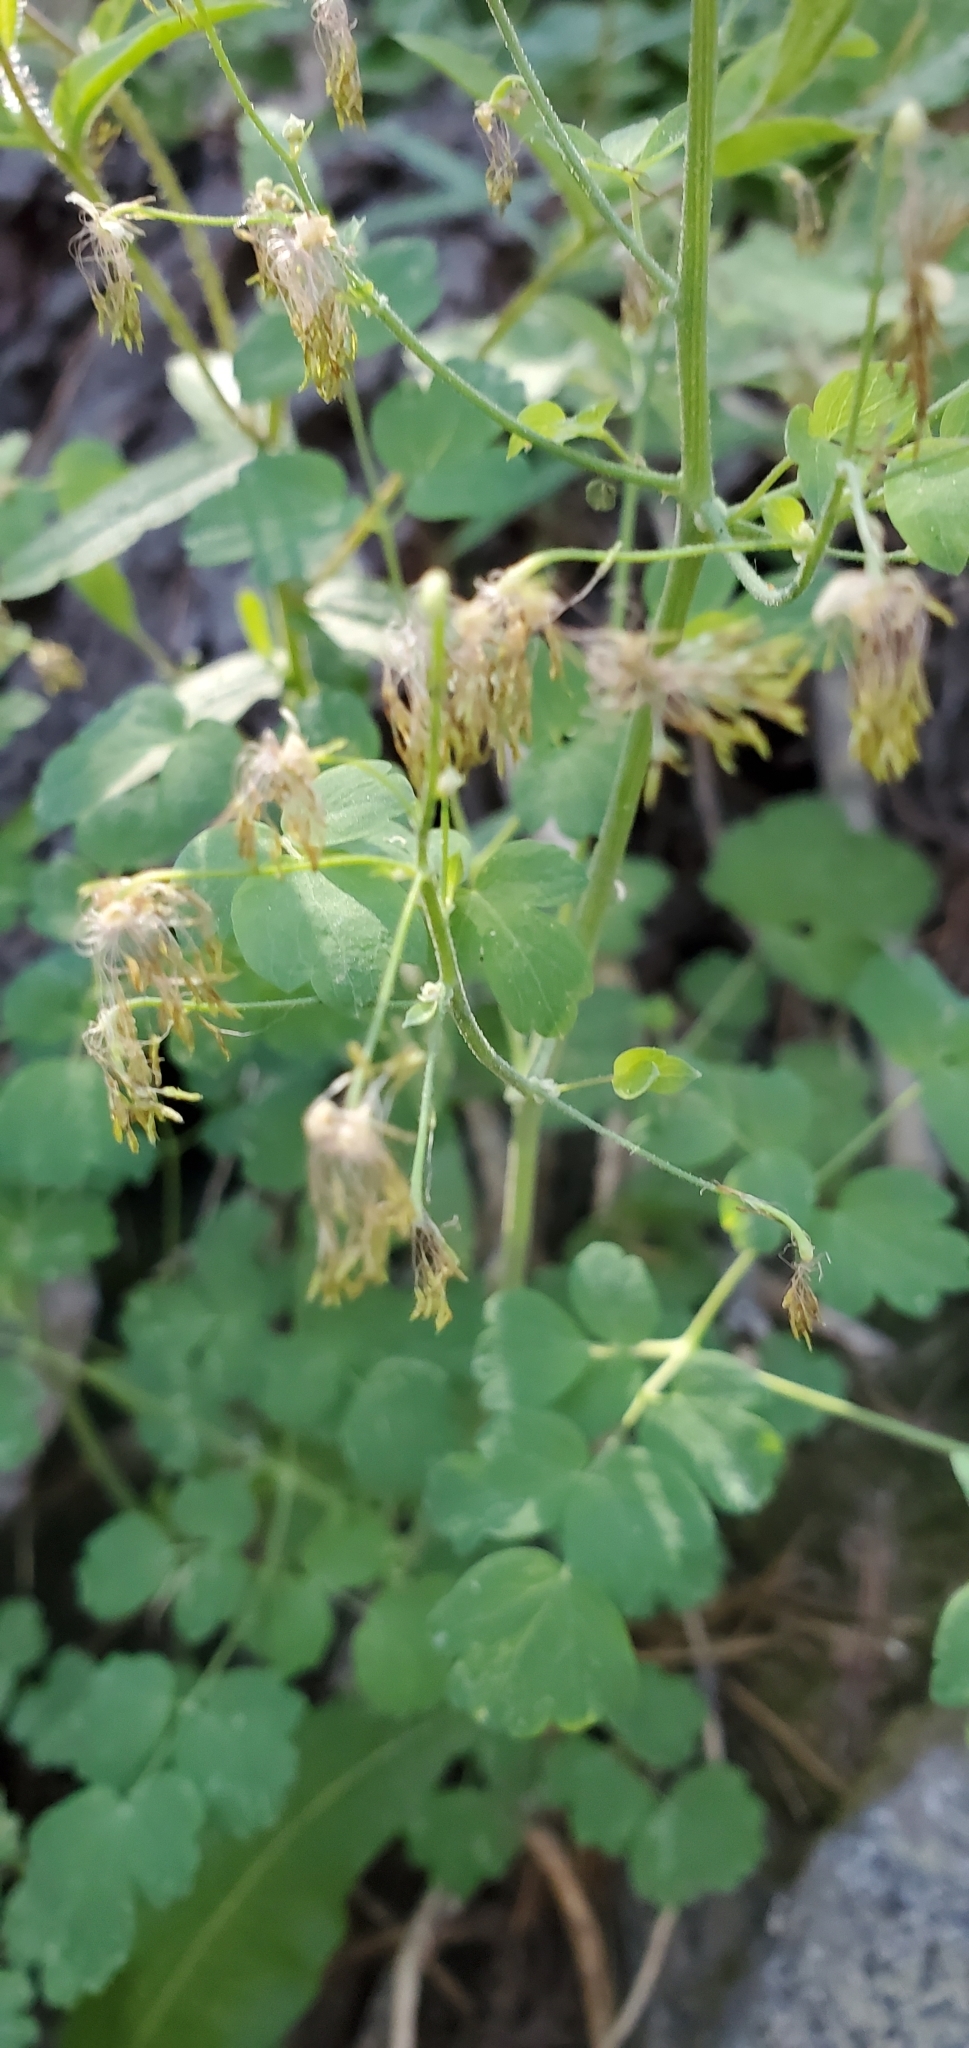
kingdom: Plantae
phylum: Tracheophyta
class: Magnoliopsida
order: Ranunculales
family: Ranunculaceae
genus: Thalictrum
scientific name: Thalictrum fendleri
